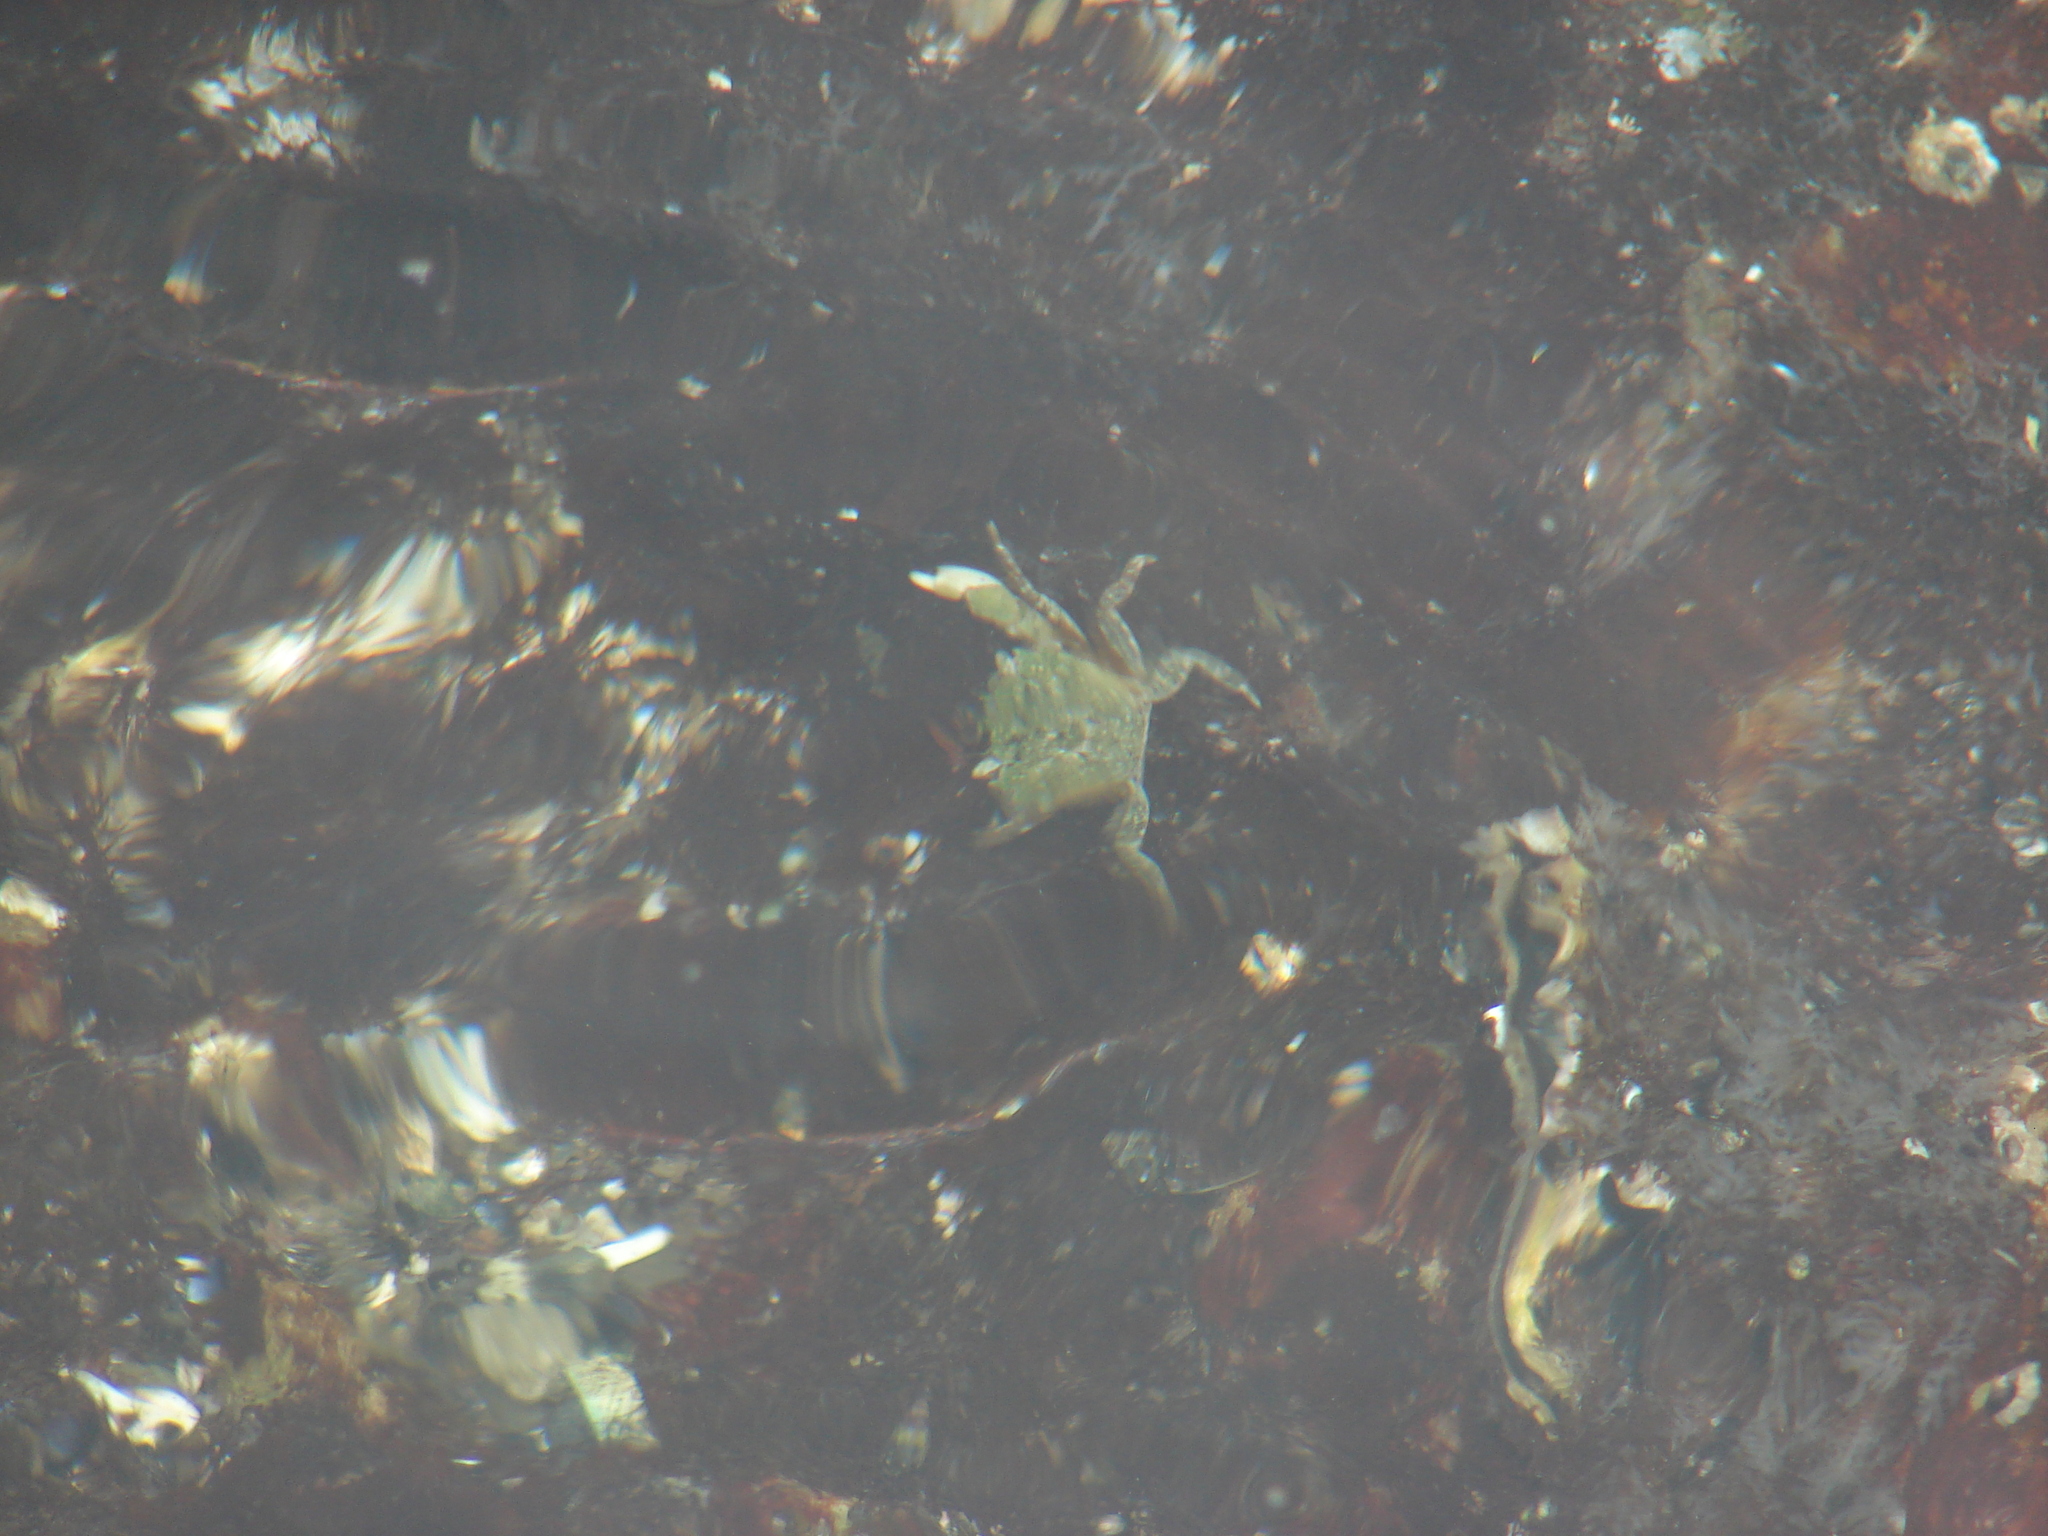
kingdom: Animalia
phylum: Arthropoda
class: Malacostraca
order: Decapoda
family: Varunidae
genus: Hemigrapsus
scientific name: Hemigrapsus oregonensis
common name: Yellow shore crab
